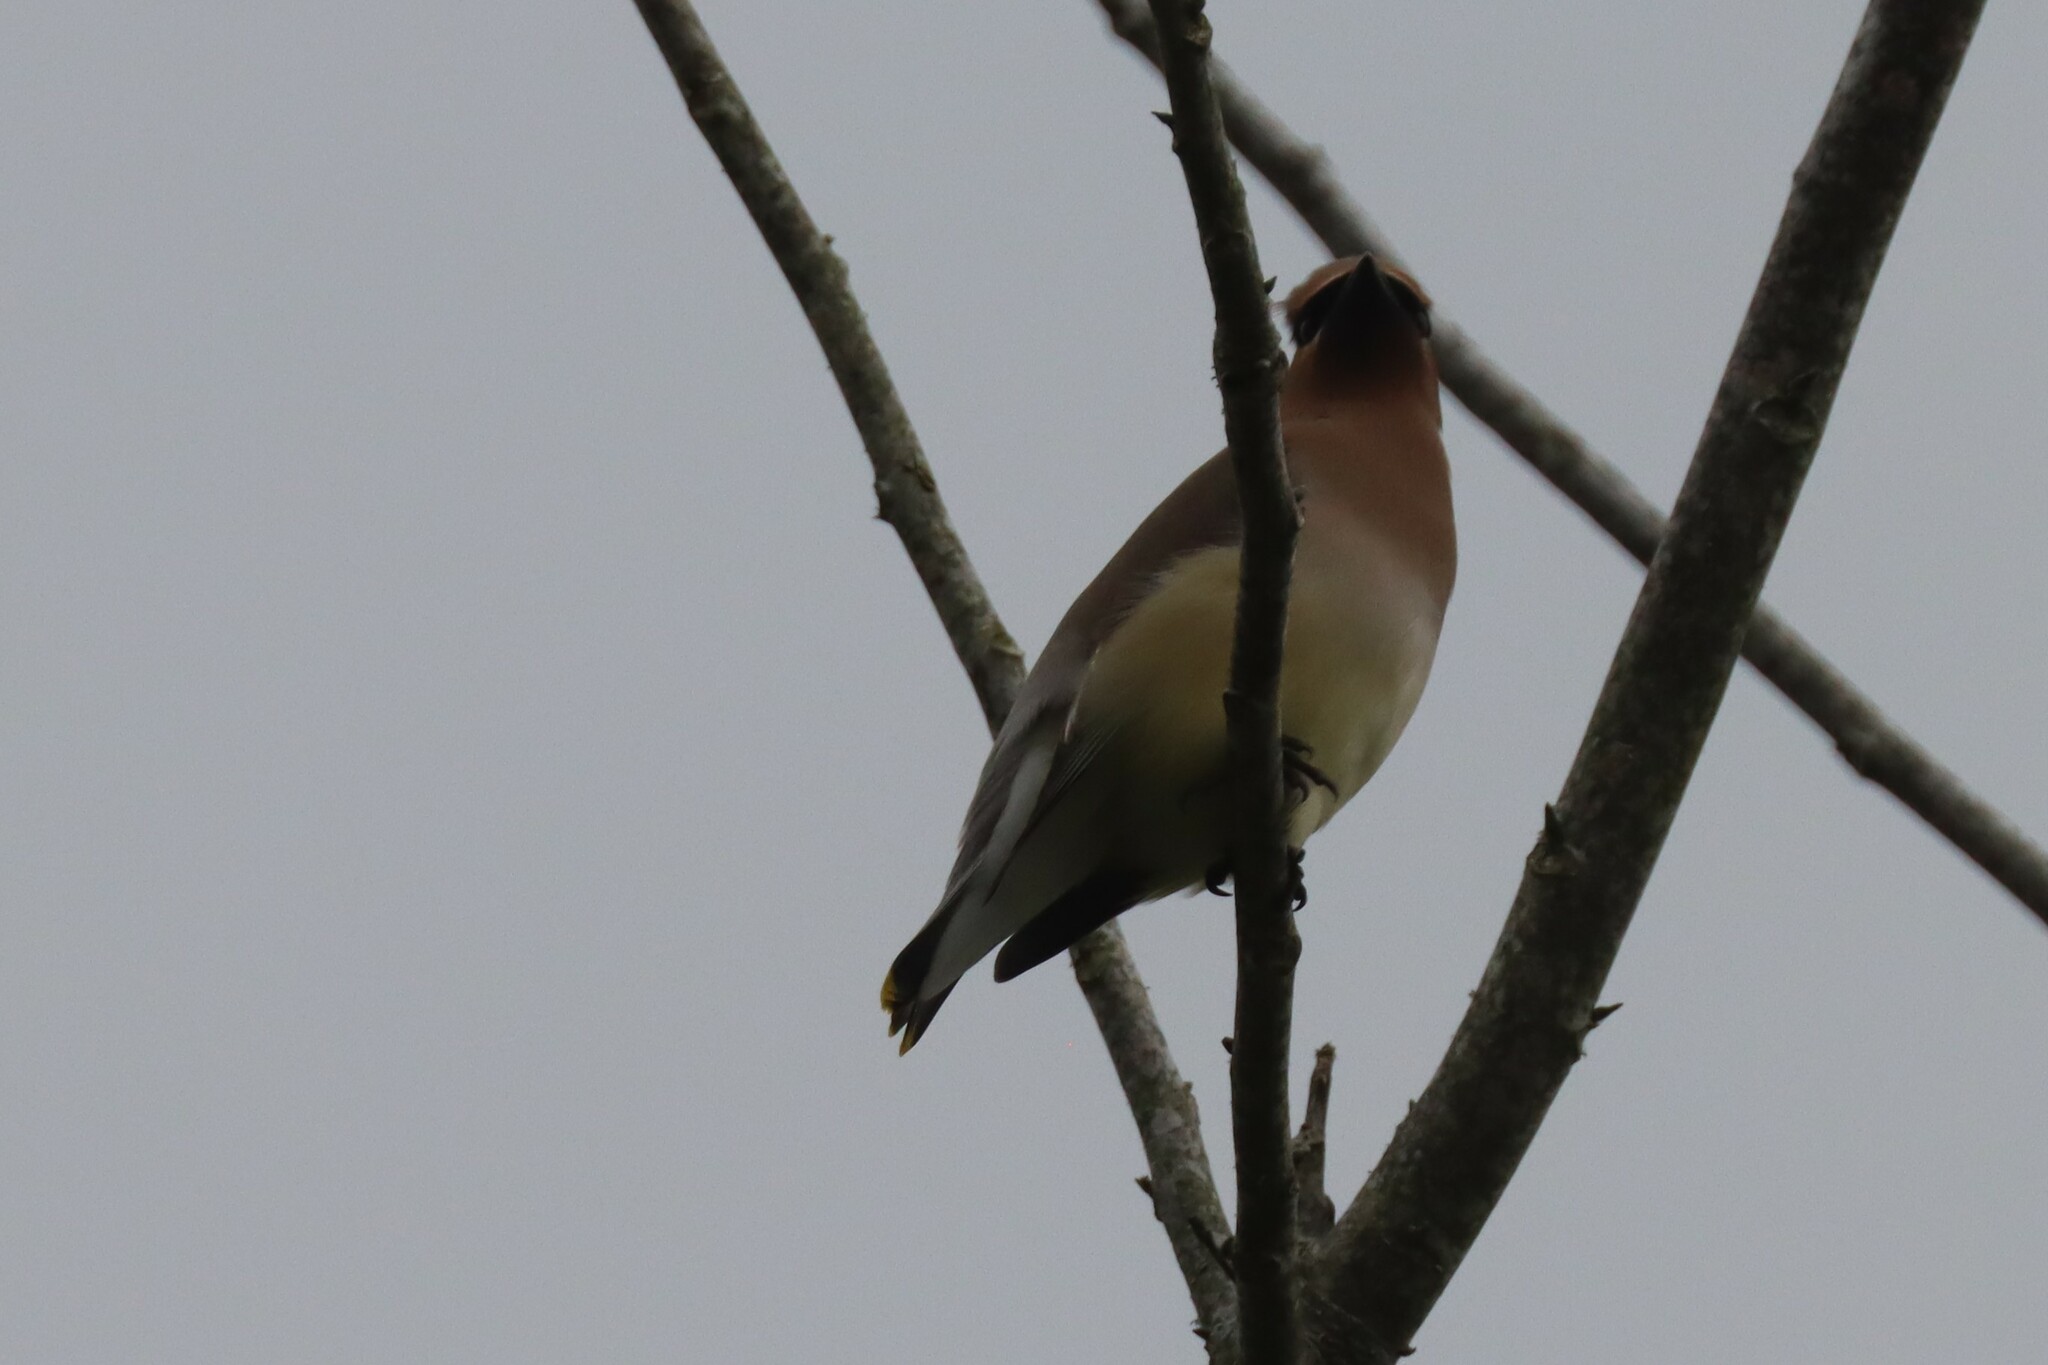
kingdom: Animalia
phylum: Chordata
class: Aves
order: Passeriformes
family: Bombycillidae
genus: Bombycilla
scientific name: Bombycilla cedrorum
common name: Cedar waxwing
